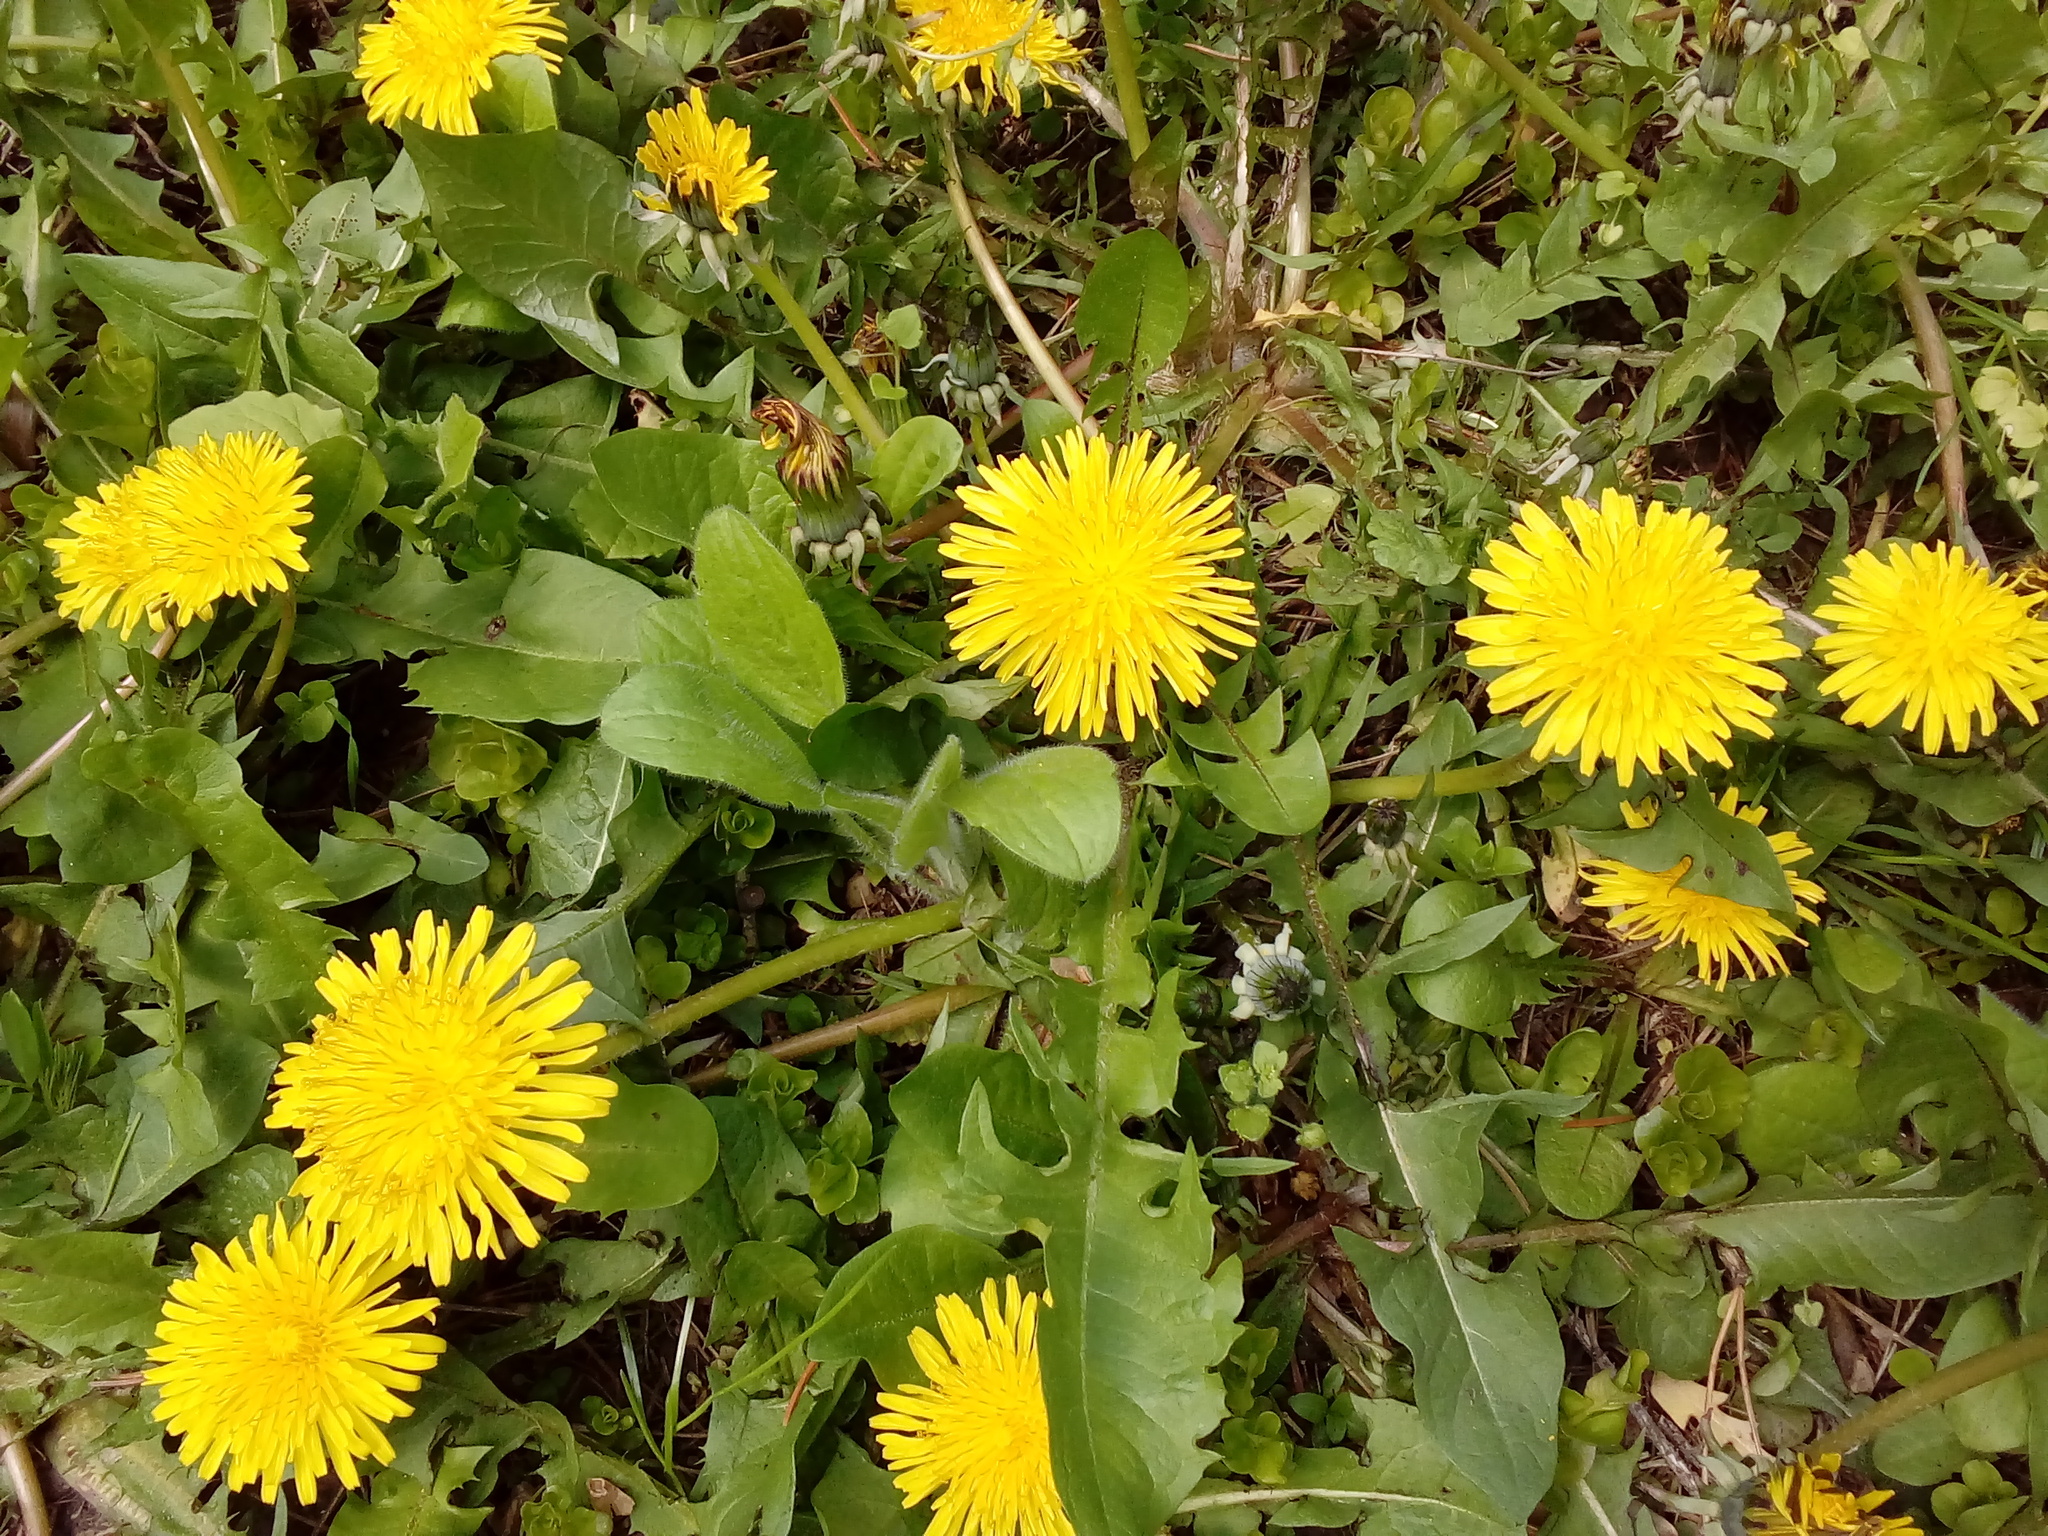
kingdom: Plantae
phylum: Tracheophyta
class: Magnoliopsida
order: Asterales
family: Asteraceae
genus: Taraxacum
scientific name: Taraxacum
